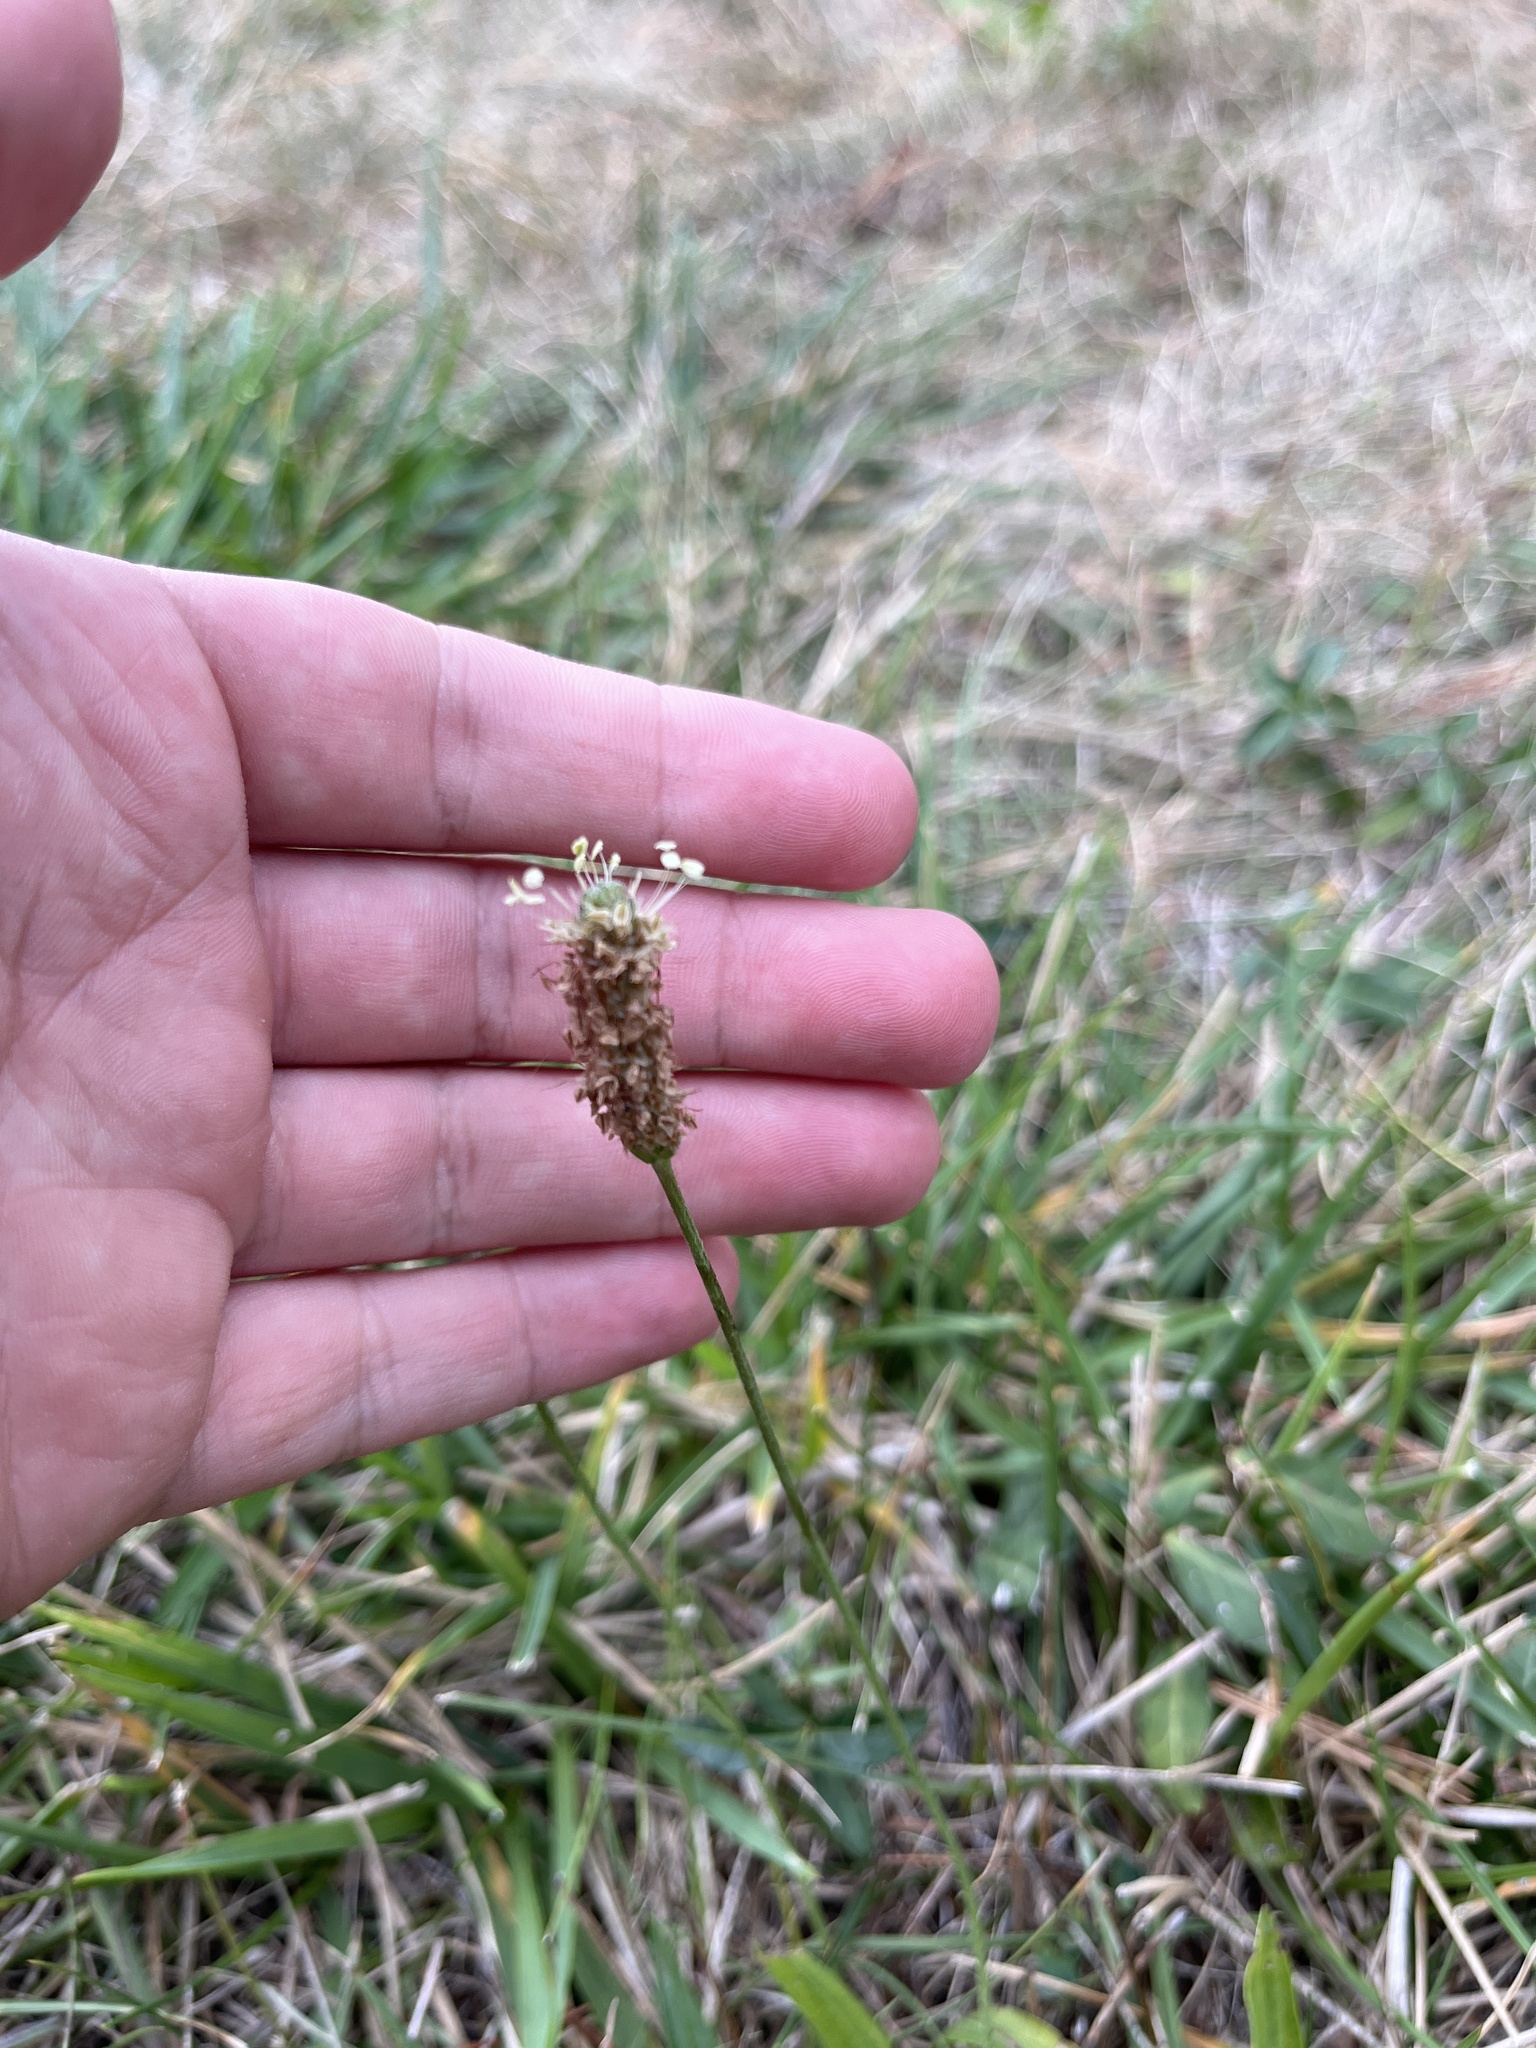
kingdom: Plantae
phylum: Tracheophyta
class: Magnoliopsida
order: Lamiales
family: Plantaginaceae
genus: Plantago
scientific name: Plantago lanceolata
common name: Ribwort plantain
